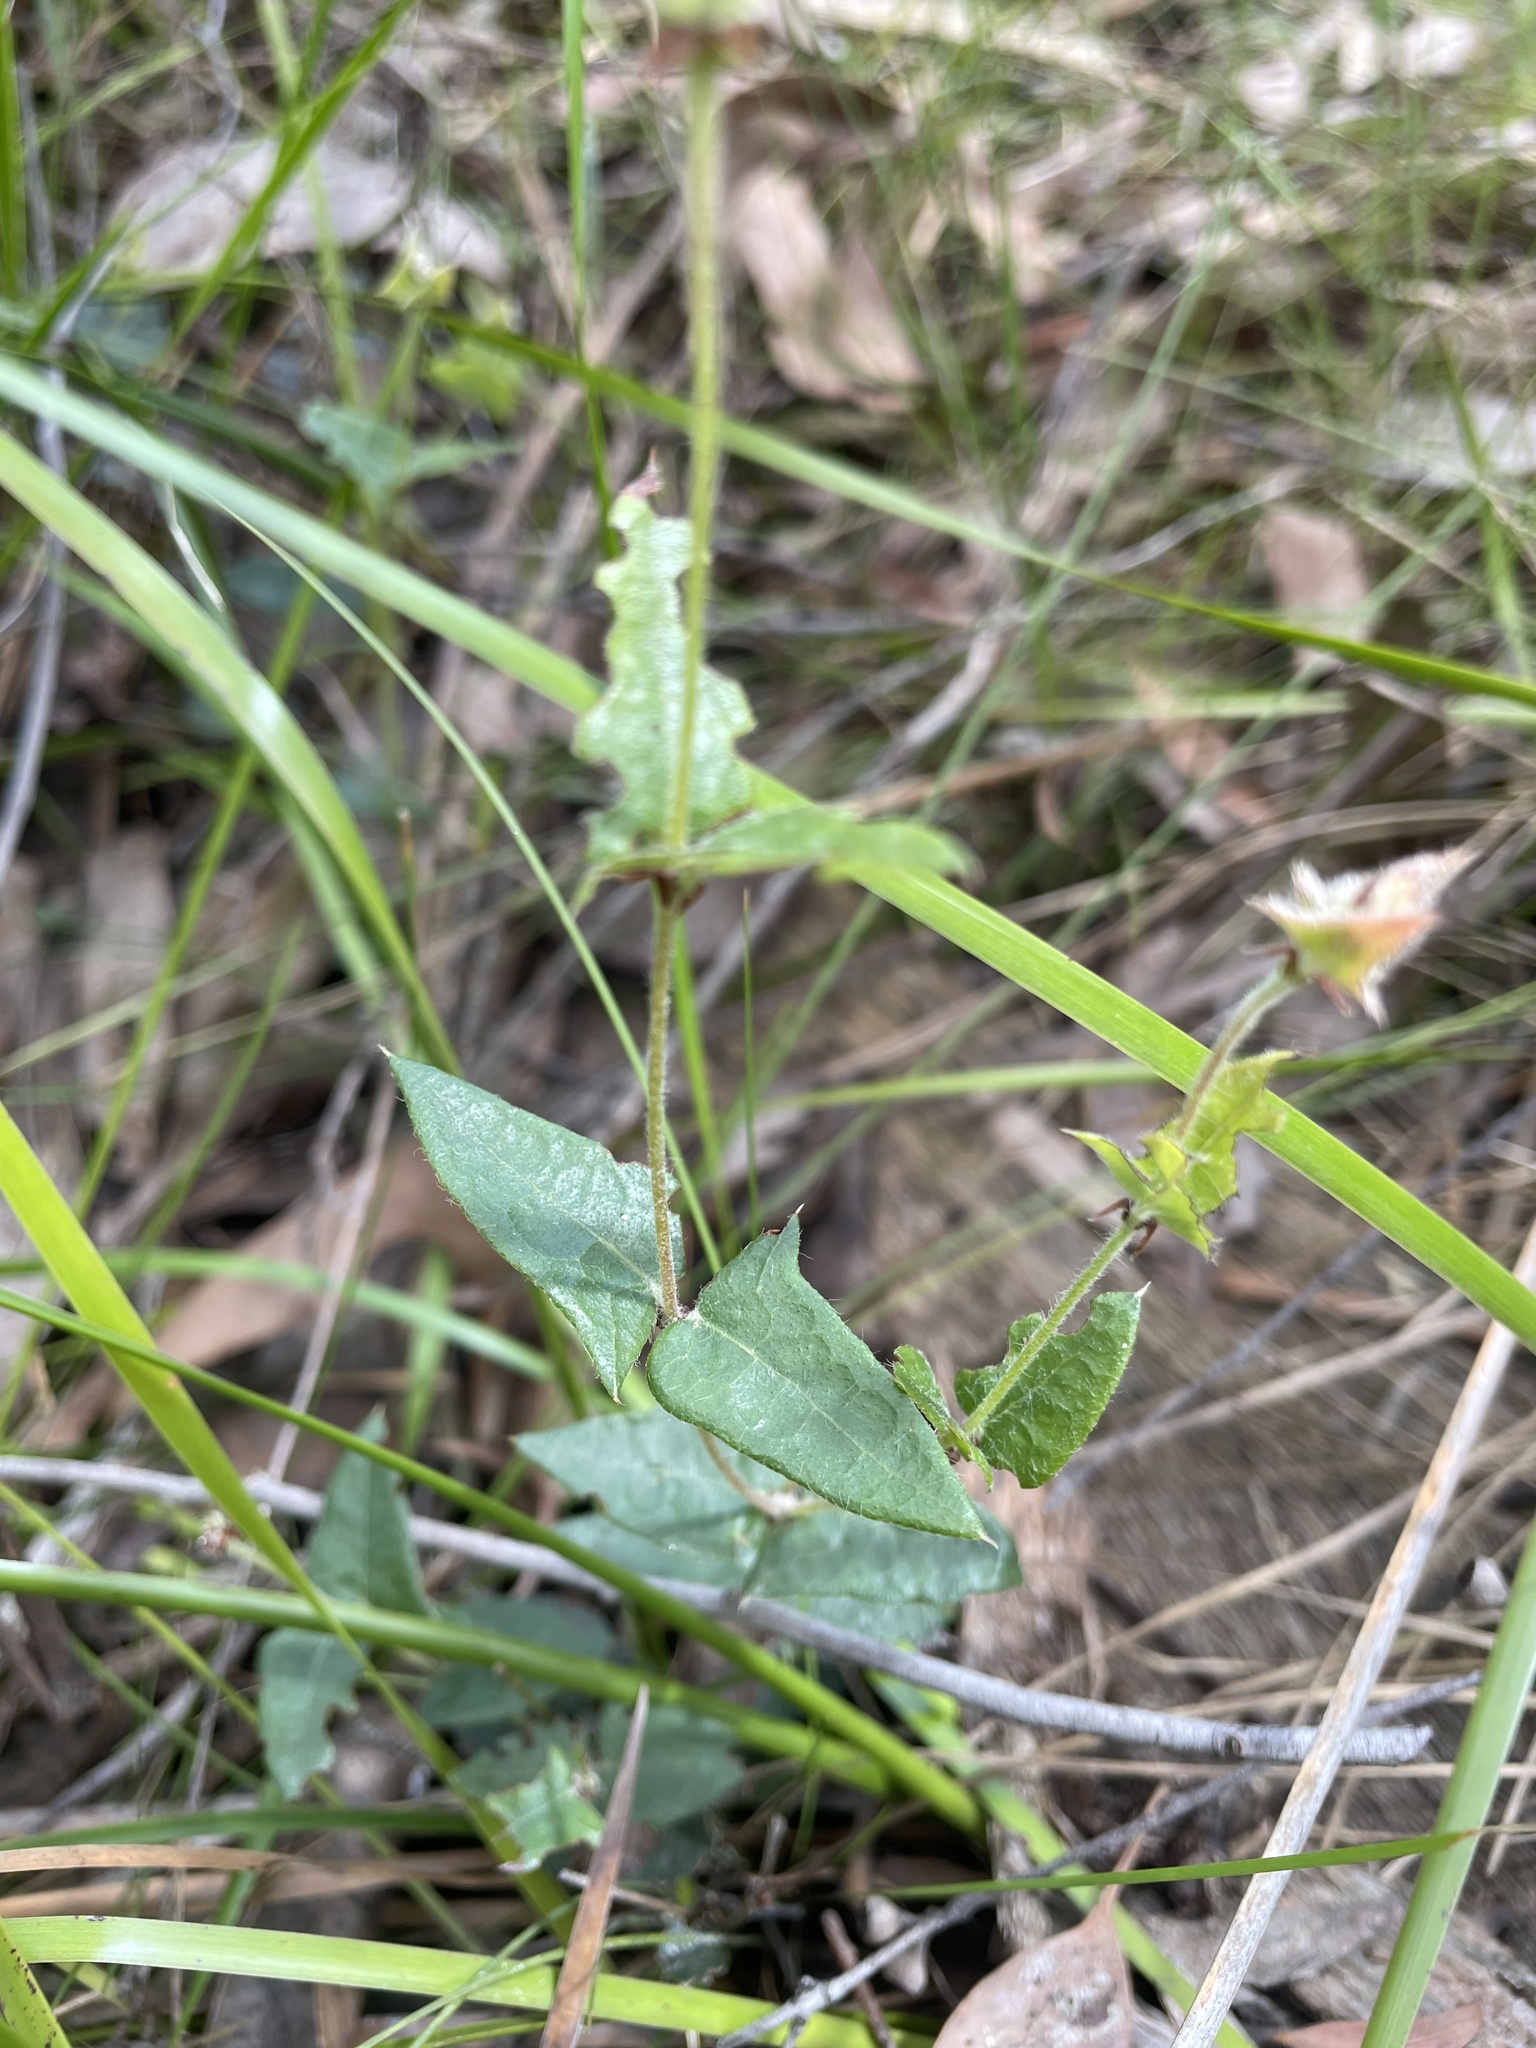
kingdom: Plantae
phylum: Tracheophyta
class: Magnoliopsida
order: Fabales
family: Fabaceae
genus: Platylobium
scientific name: Platylobium obtusangulum
